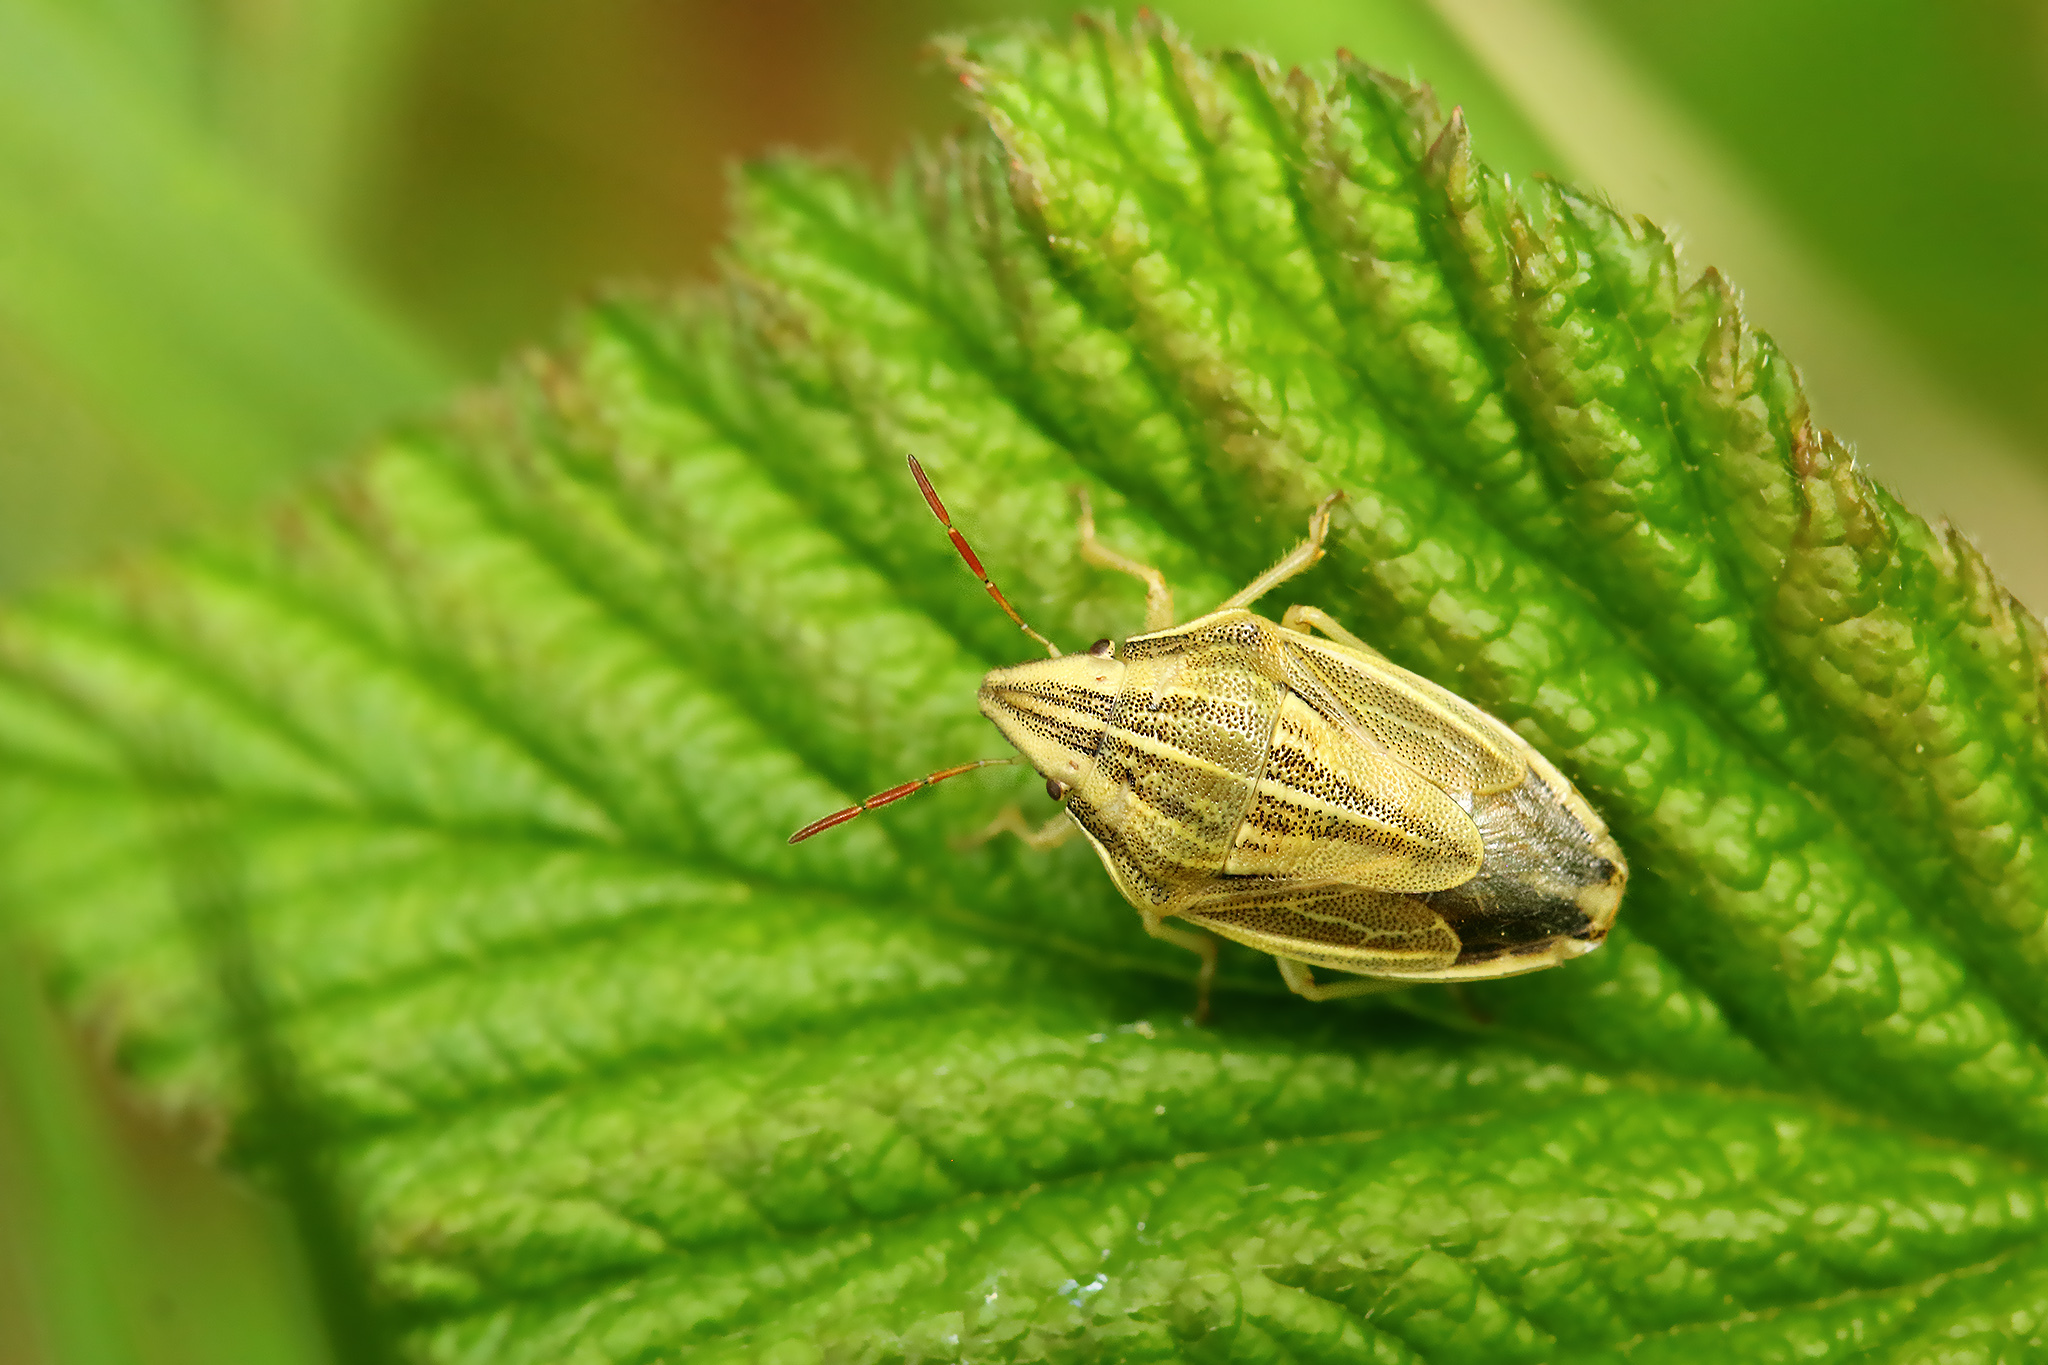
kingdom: Animalia
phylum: Arthropoda
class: Insecta
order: Hemiptera
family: Pentatomidae
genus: Aelia
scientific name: Aelia acuminata
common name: Bishop's mitre
